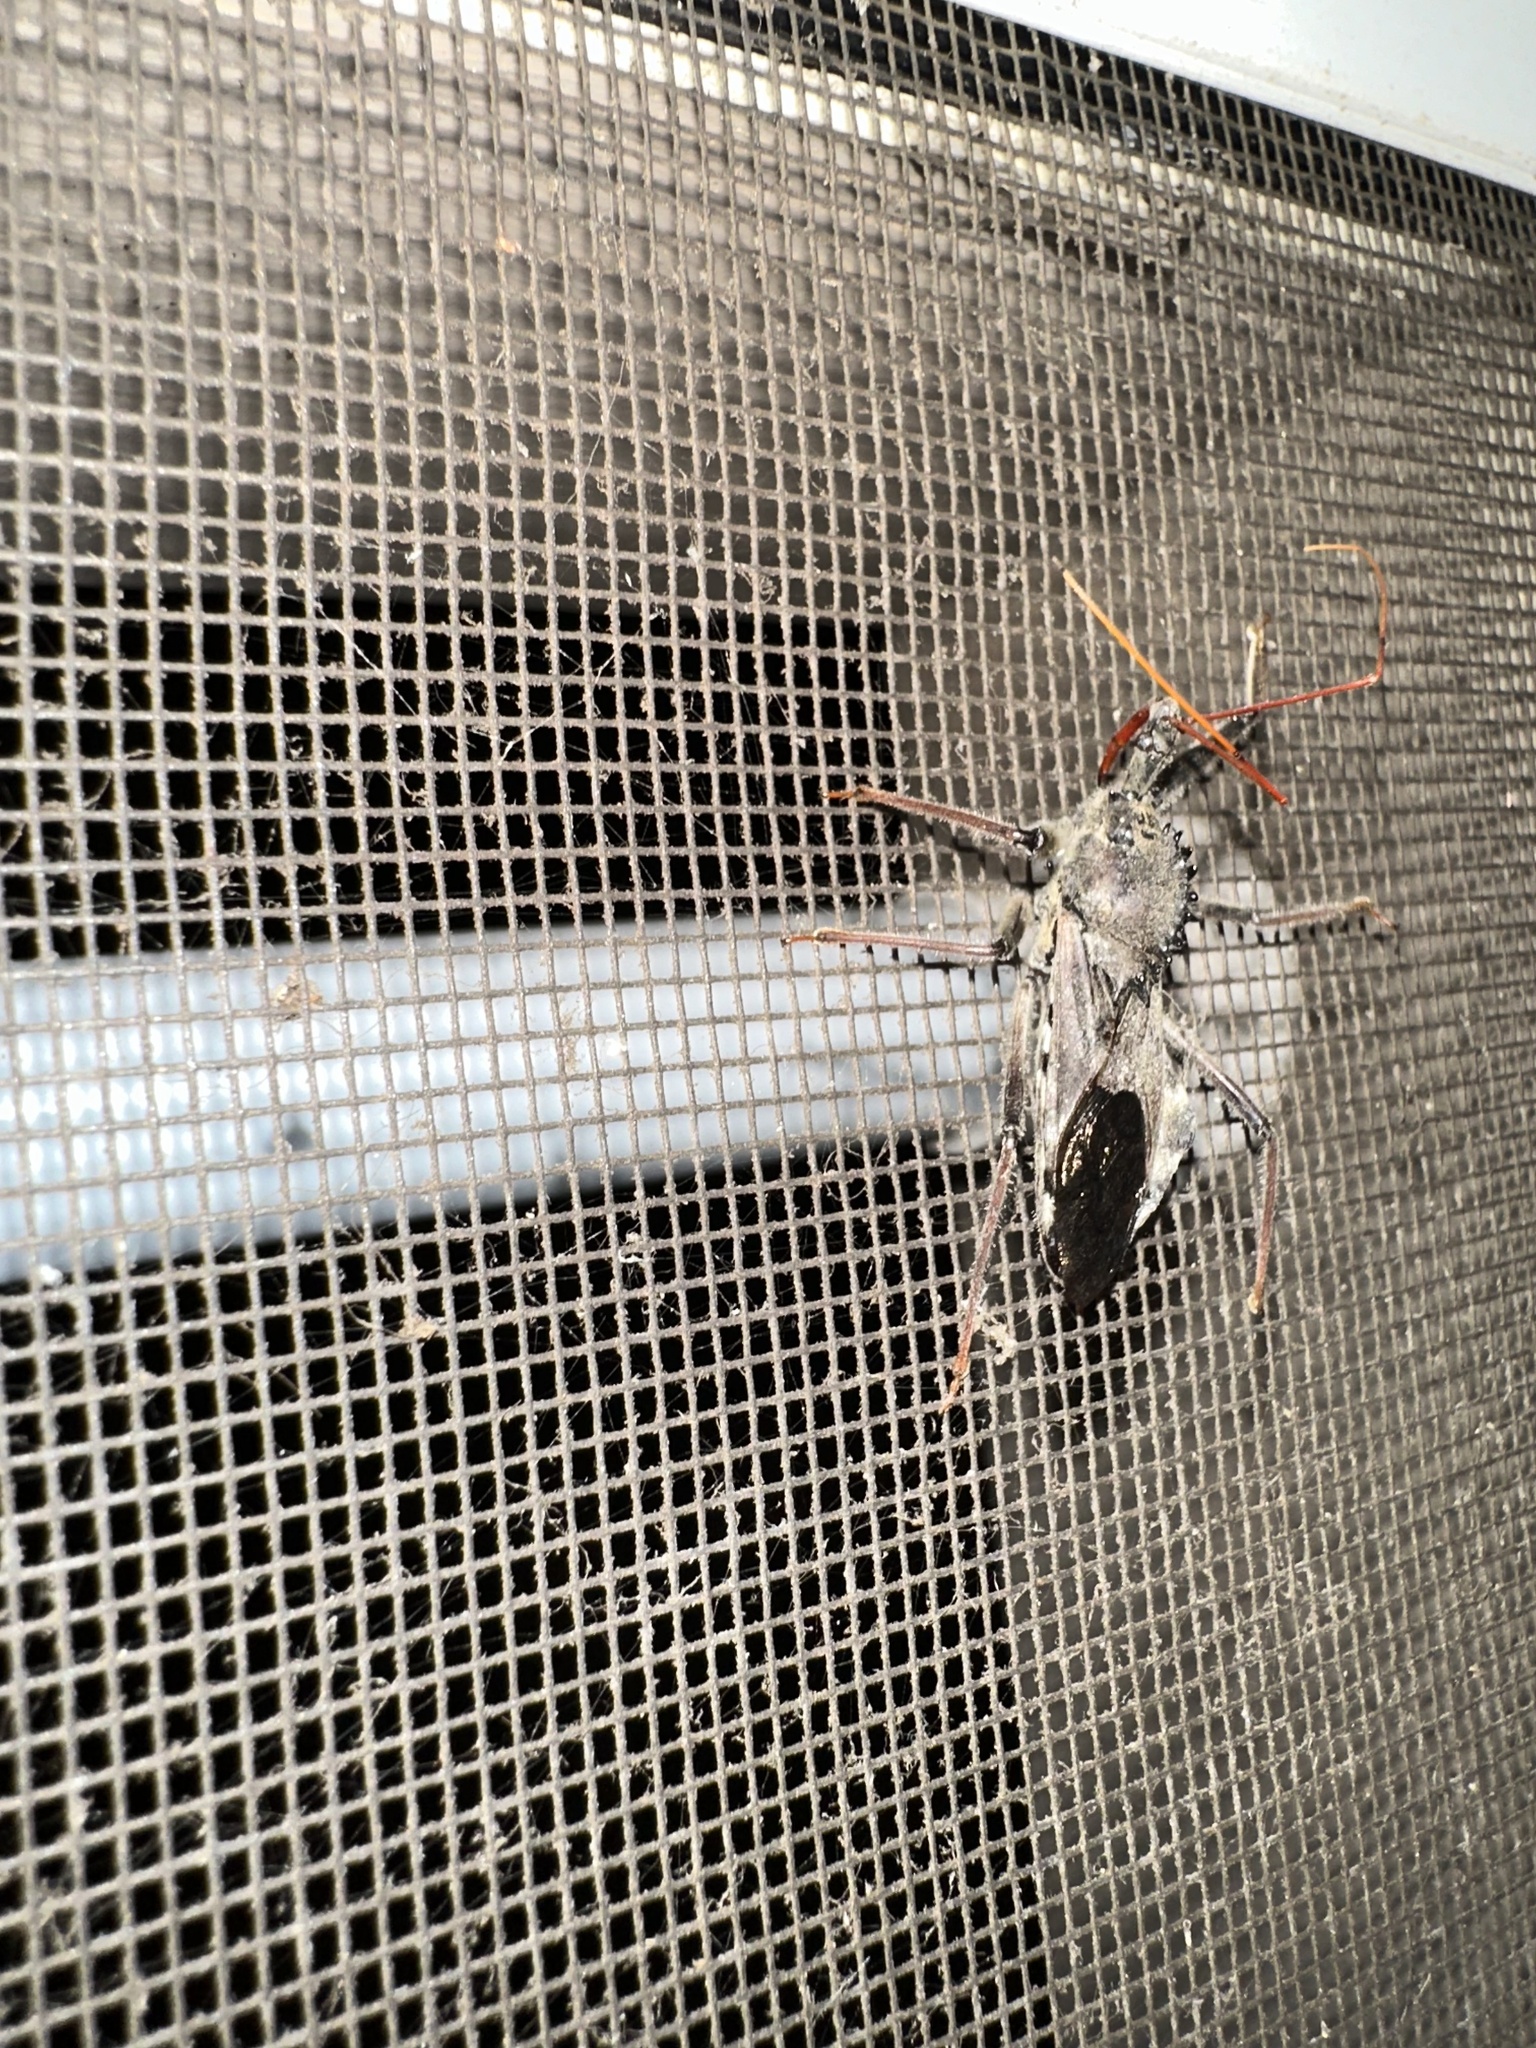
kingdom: Animalia
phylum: Arthropoda
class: Insecta
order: Hemiptera
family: Reduviidae
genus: Arilus
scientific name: Arilus cristatus
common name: North american wheel bug
